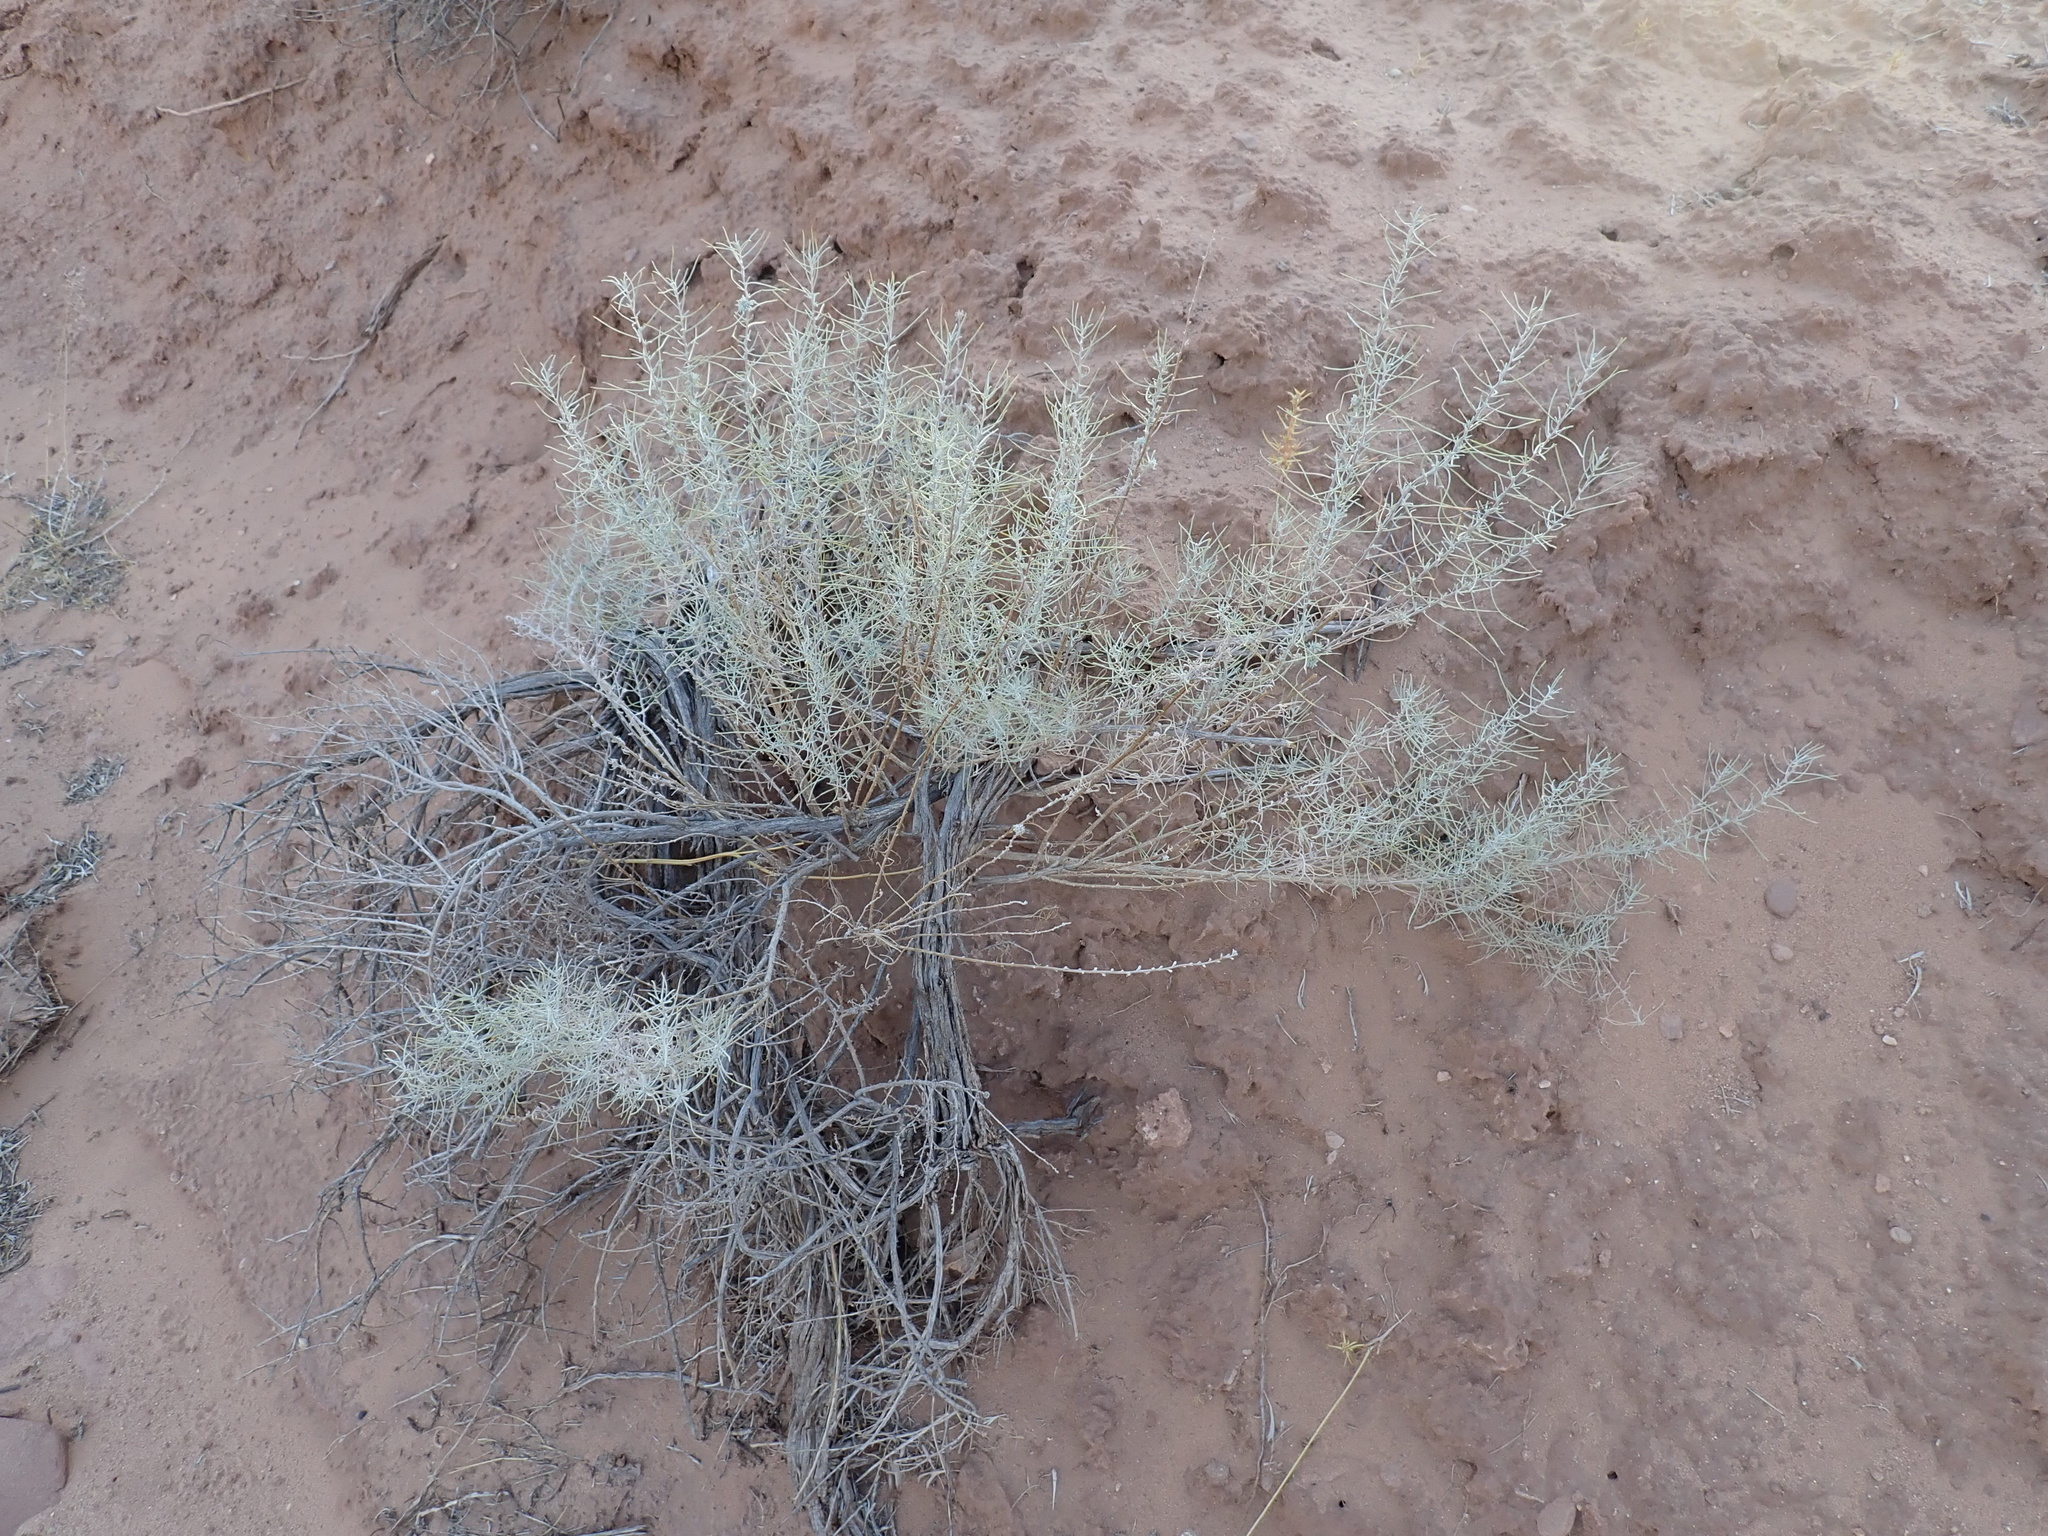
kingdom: Plantae
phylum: Tracheophyta
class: Magnoliopsida
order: Asterales
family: Asteraceae
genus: Artemisia
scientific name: Artemisia filifolia
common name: Sand-sage
